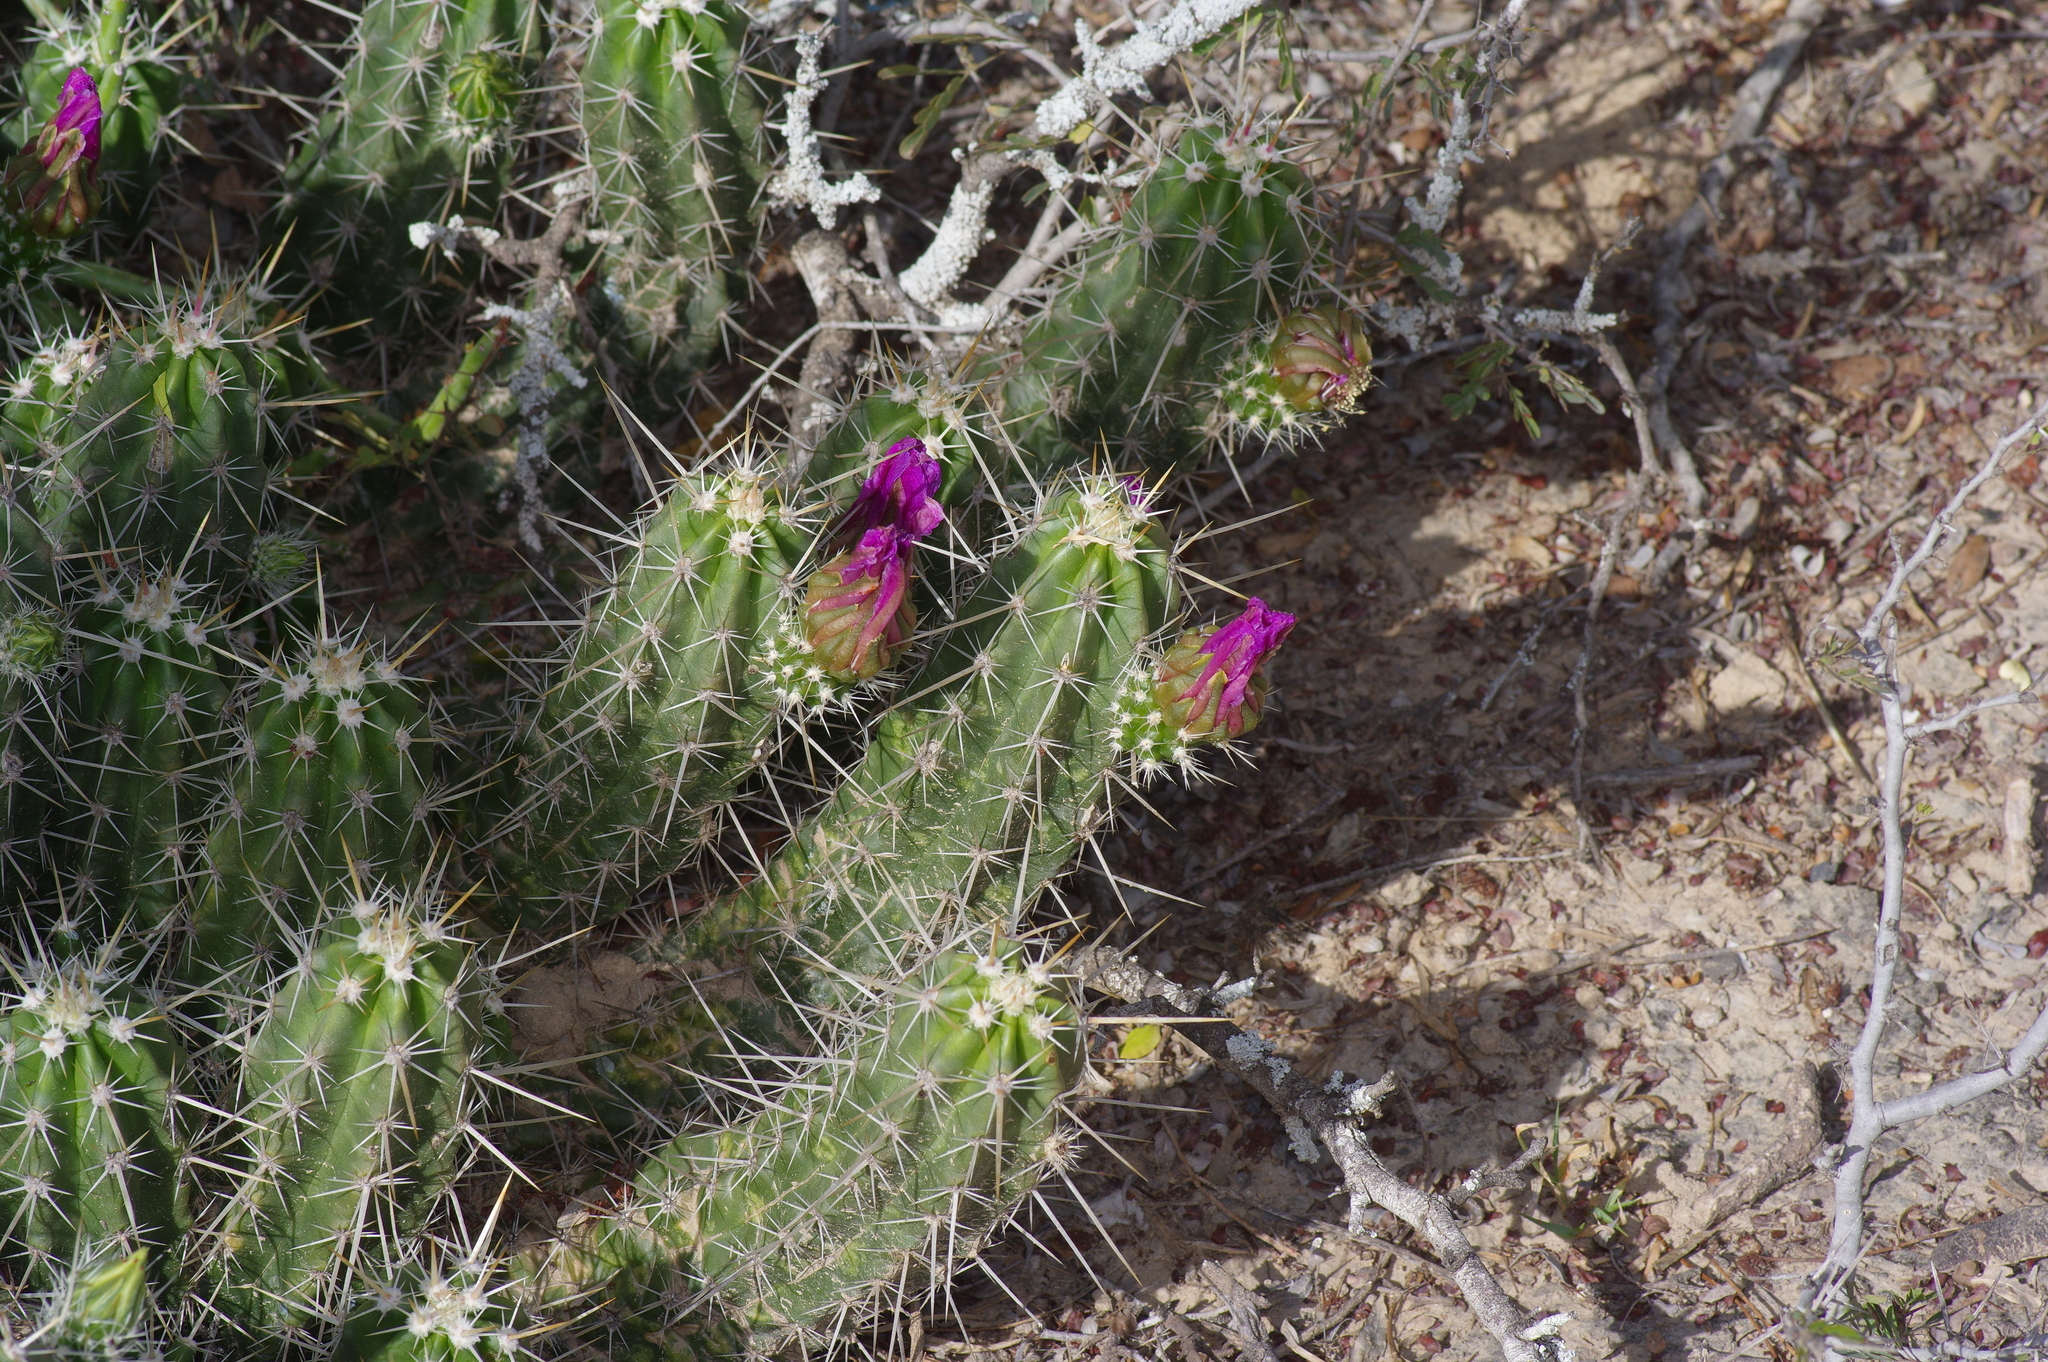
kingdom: Plantae
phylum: Tracheophyta
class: Magnoliopsida
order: Caryophyllales
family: Cactaceae
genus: Echinocereus
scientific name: Echinocereus enneacanthus
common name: Pitaya
